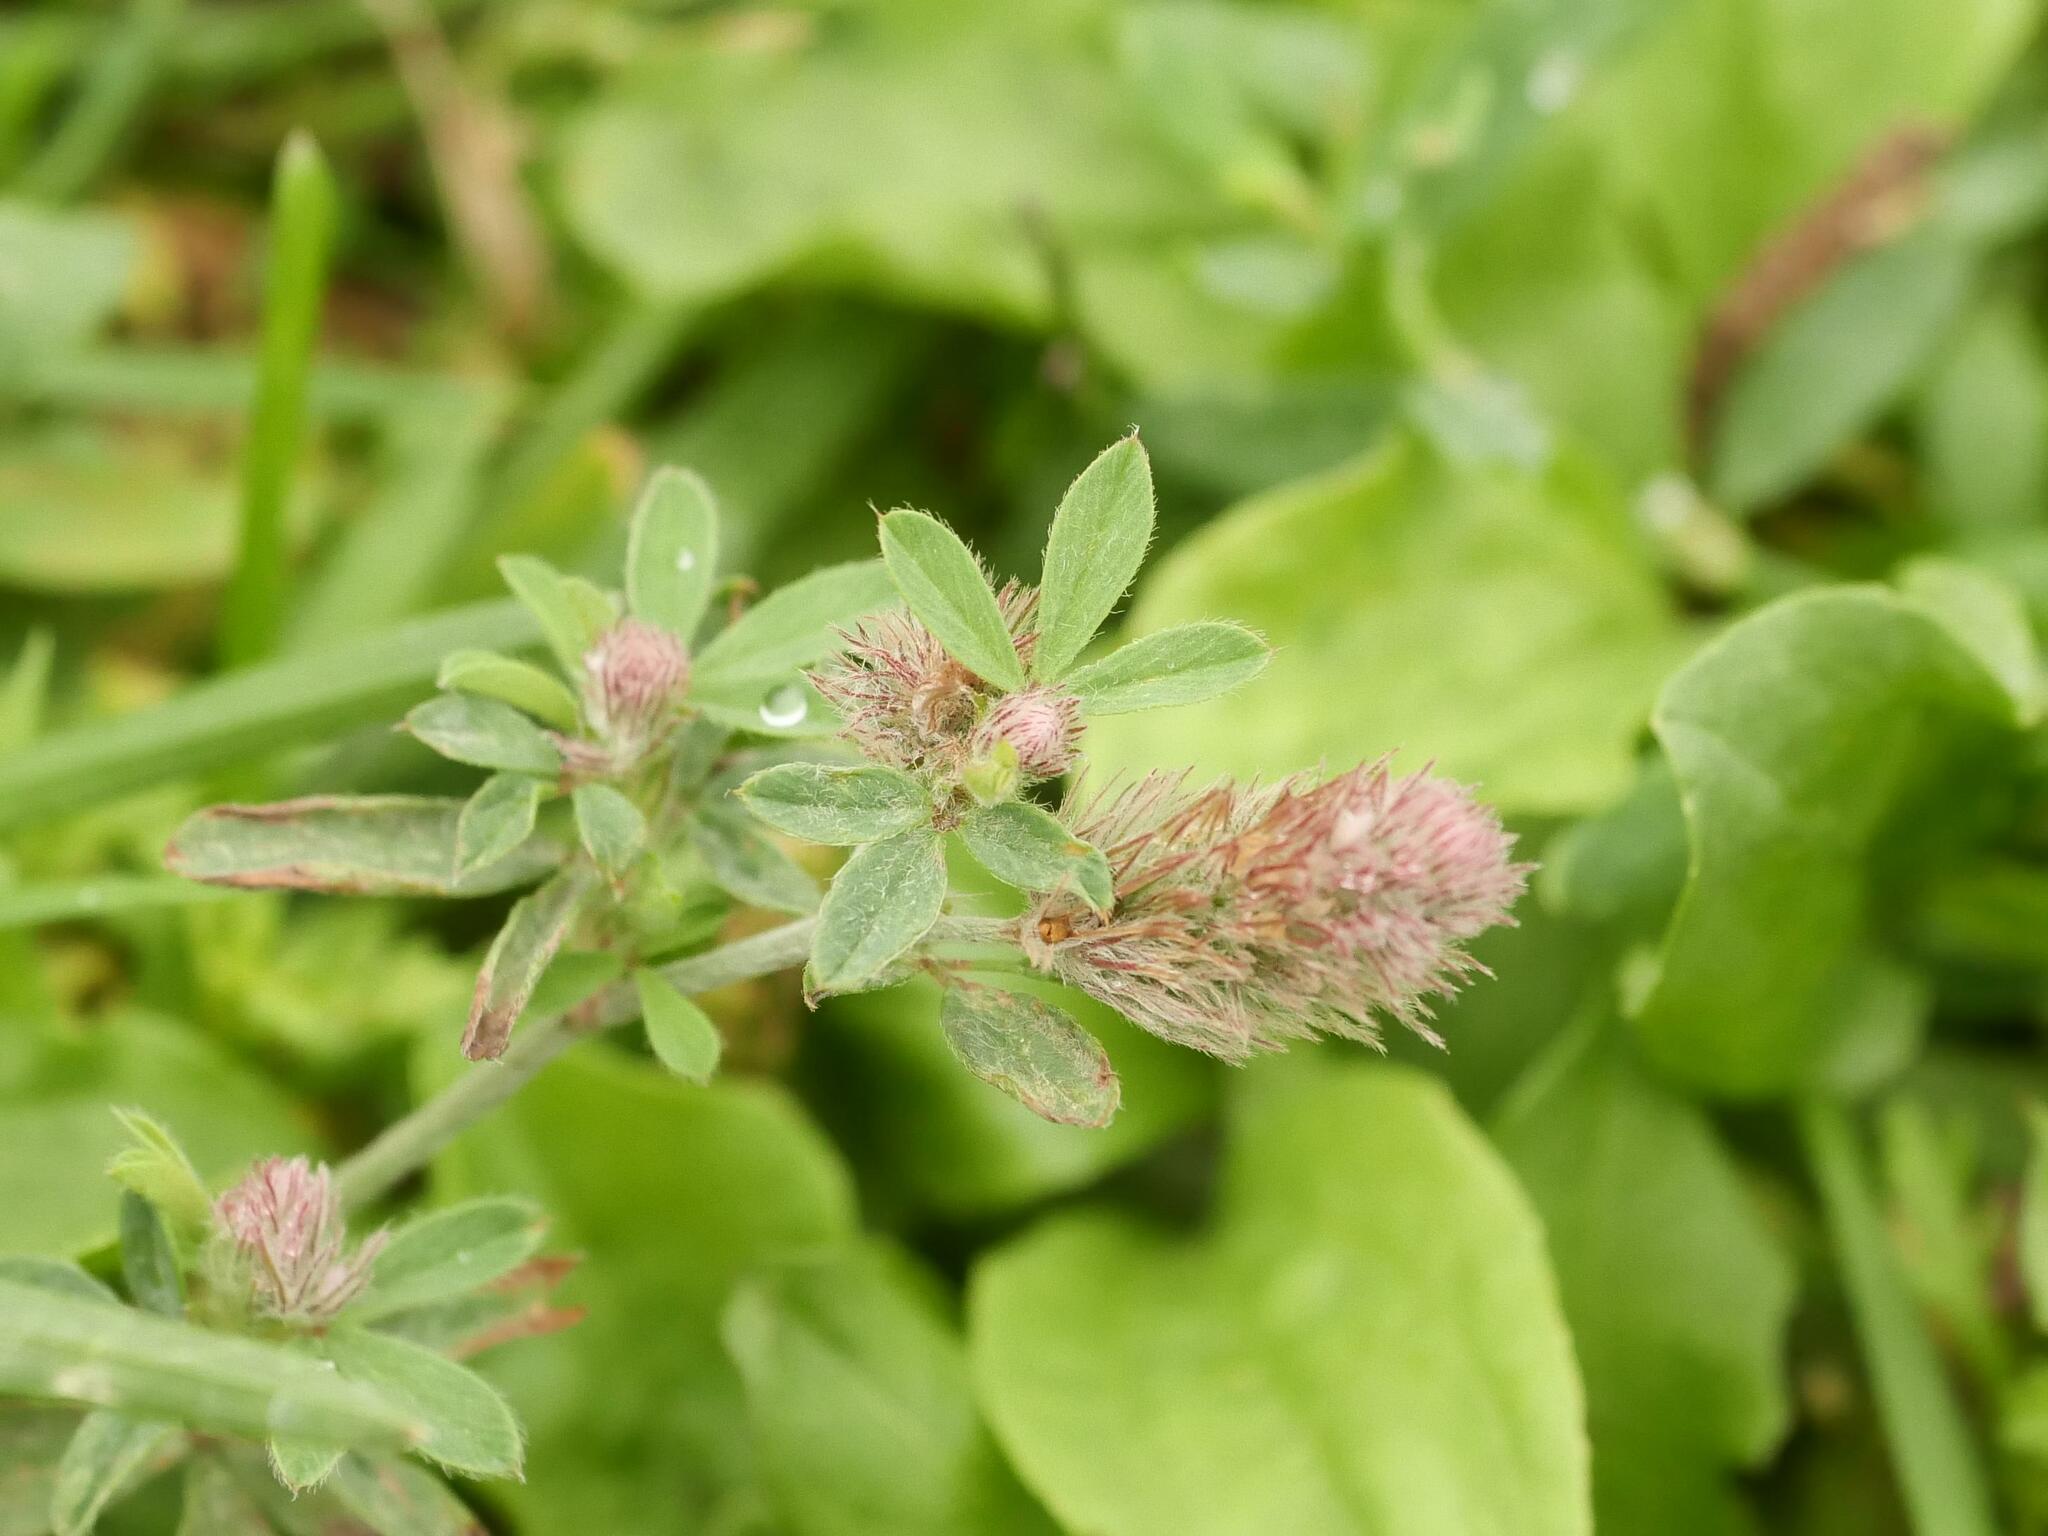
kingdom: Plantae
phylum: Tracheophyta
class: Magnoliopsida
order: Fabales
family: Fabaceae
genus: Trifolium
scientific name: Trifolium arvense
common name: Hare's-foot clover
